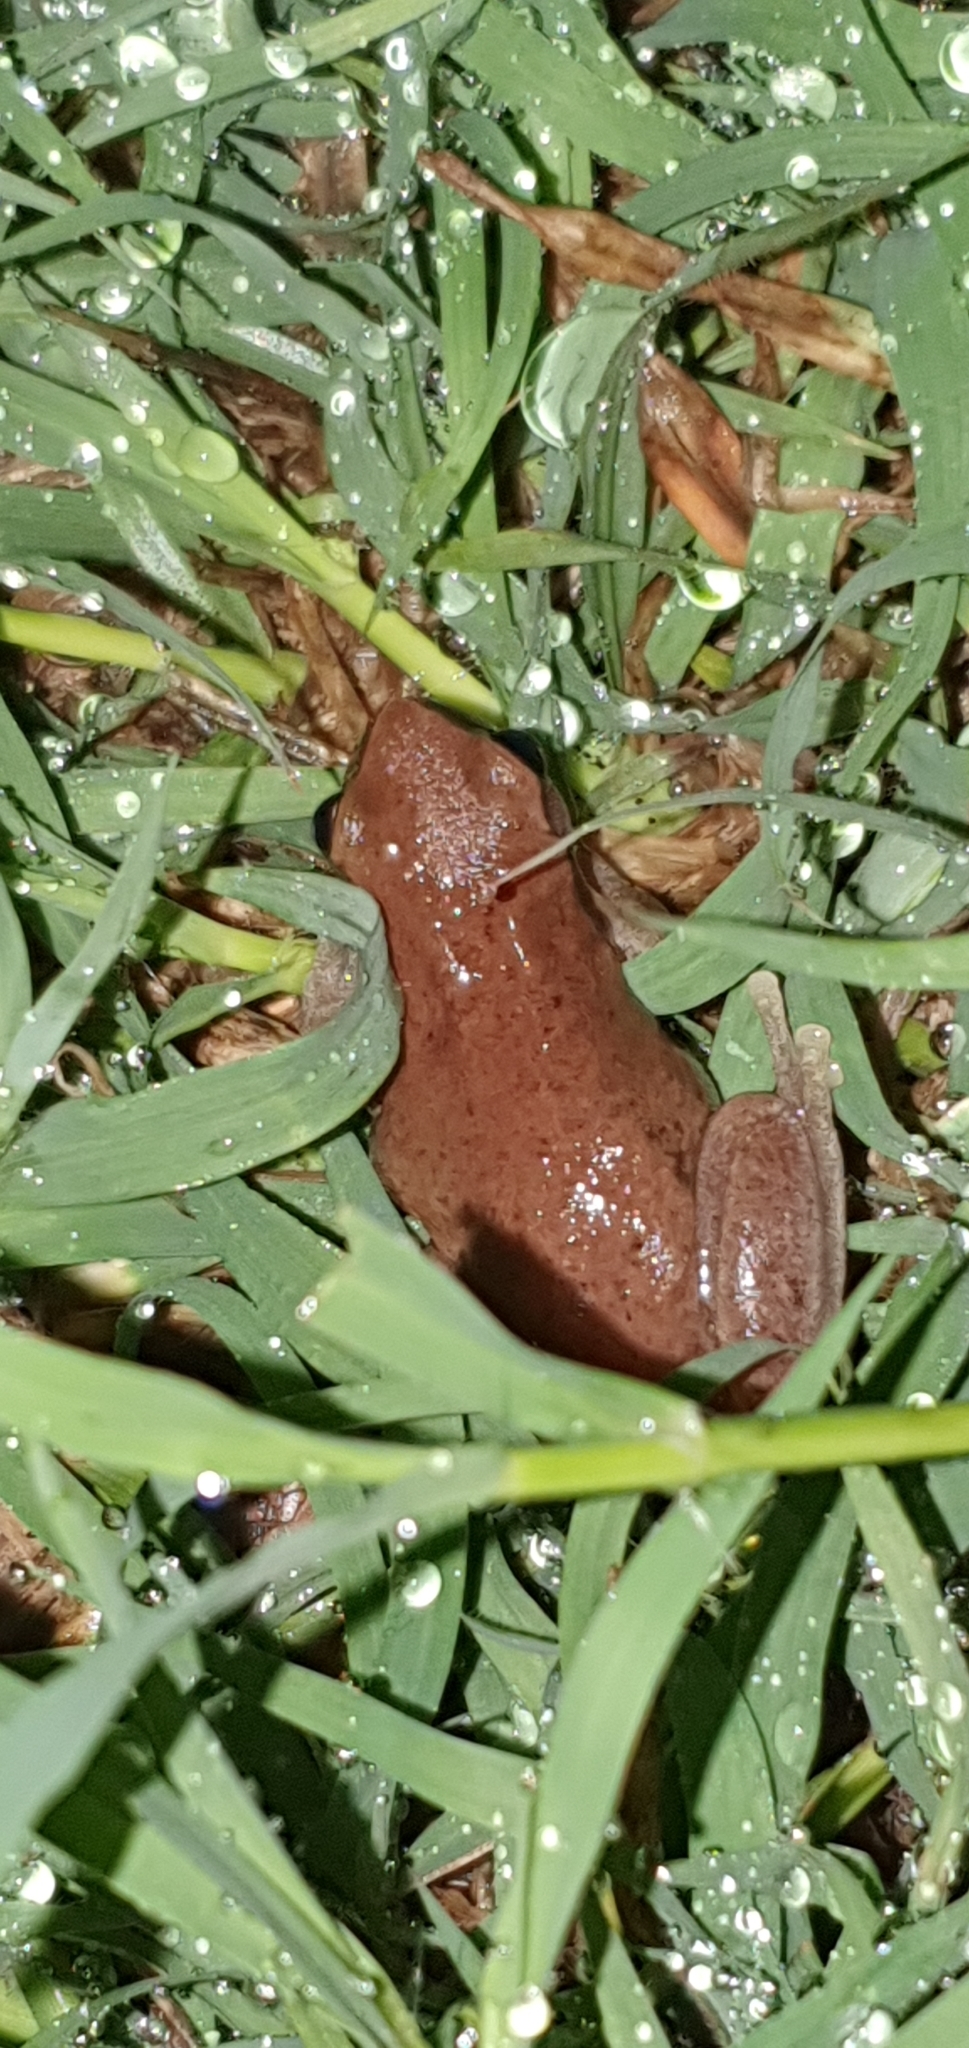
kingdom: Animalia
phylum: Chordata
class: Amphibia
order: Anura
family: Pelodryadidae
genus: Litoria
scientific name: Litoria rubella
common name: Desert tree frog
